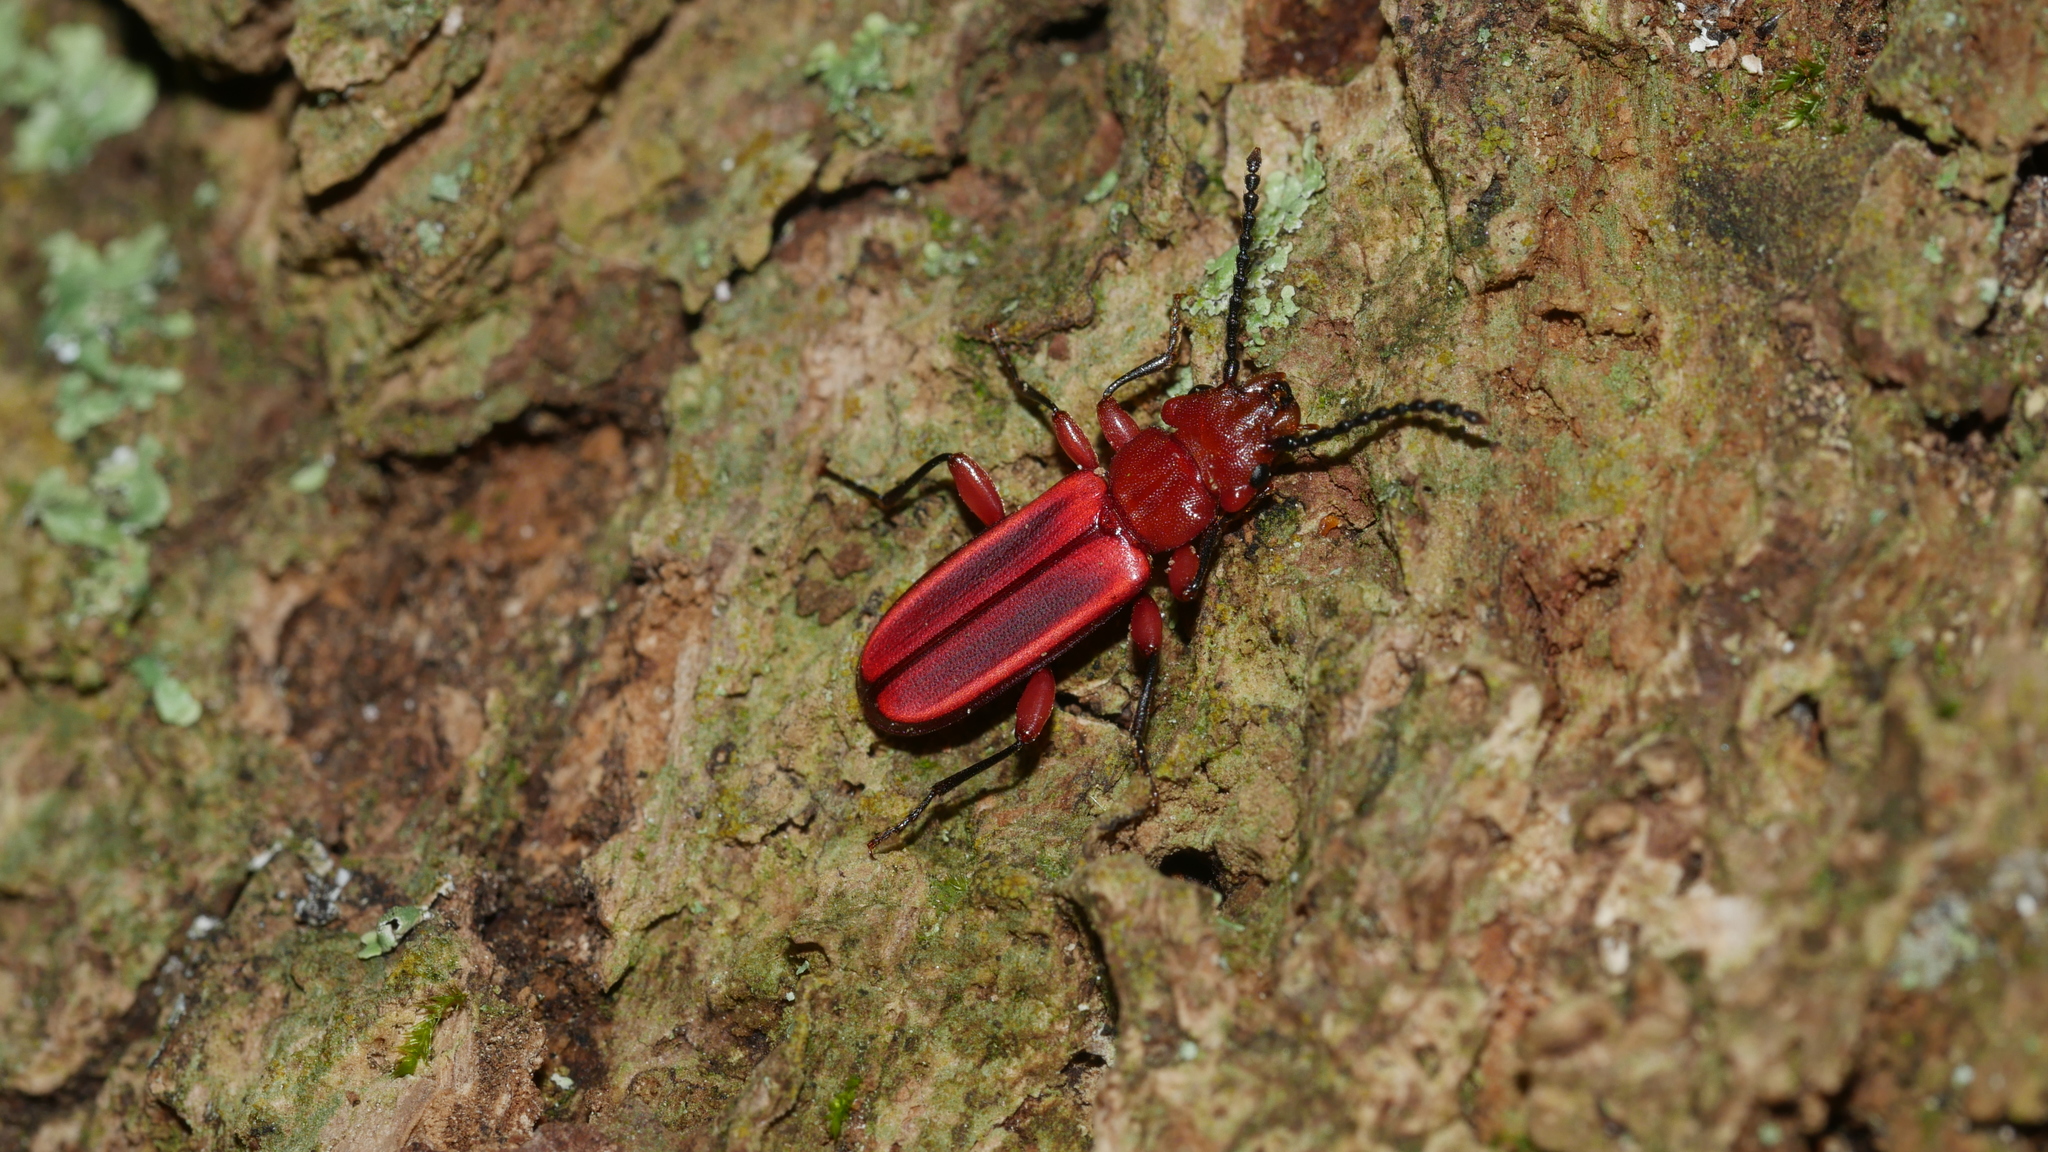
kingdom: Animalia
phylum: Arthropoda
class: Insecta
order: Coleoptera
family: Cucujidae
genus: Cucujus
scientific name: Cucujus clavipes
